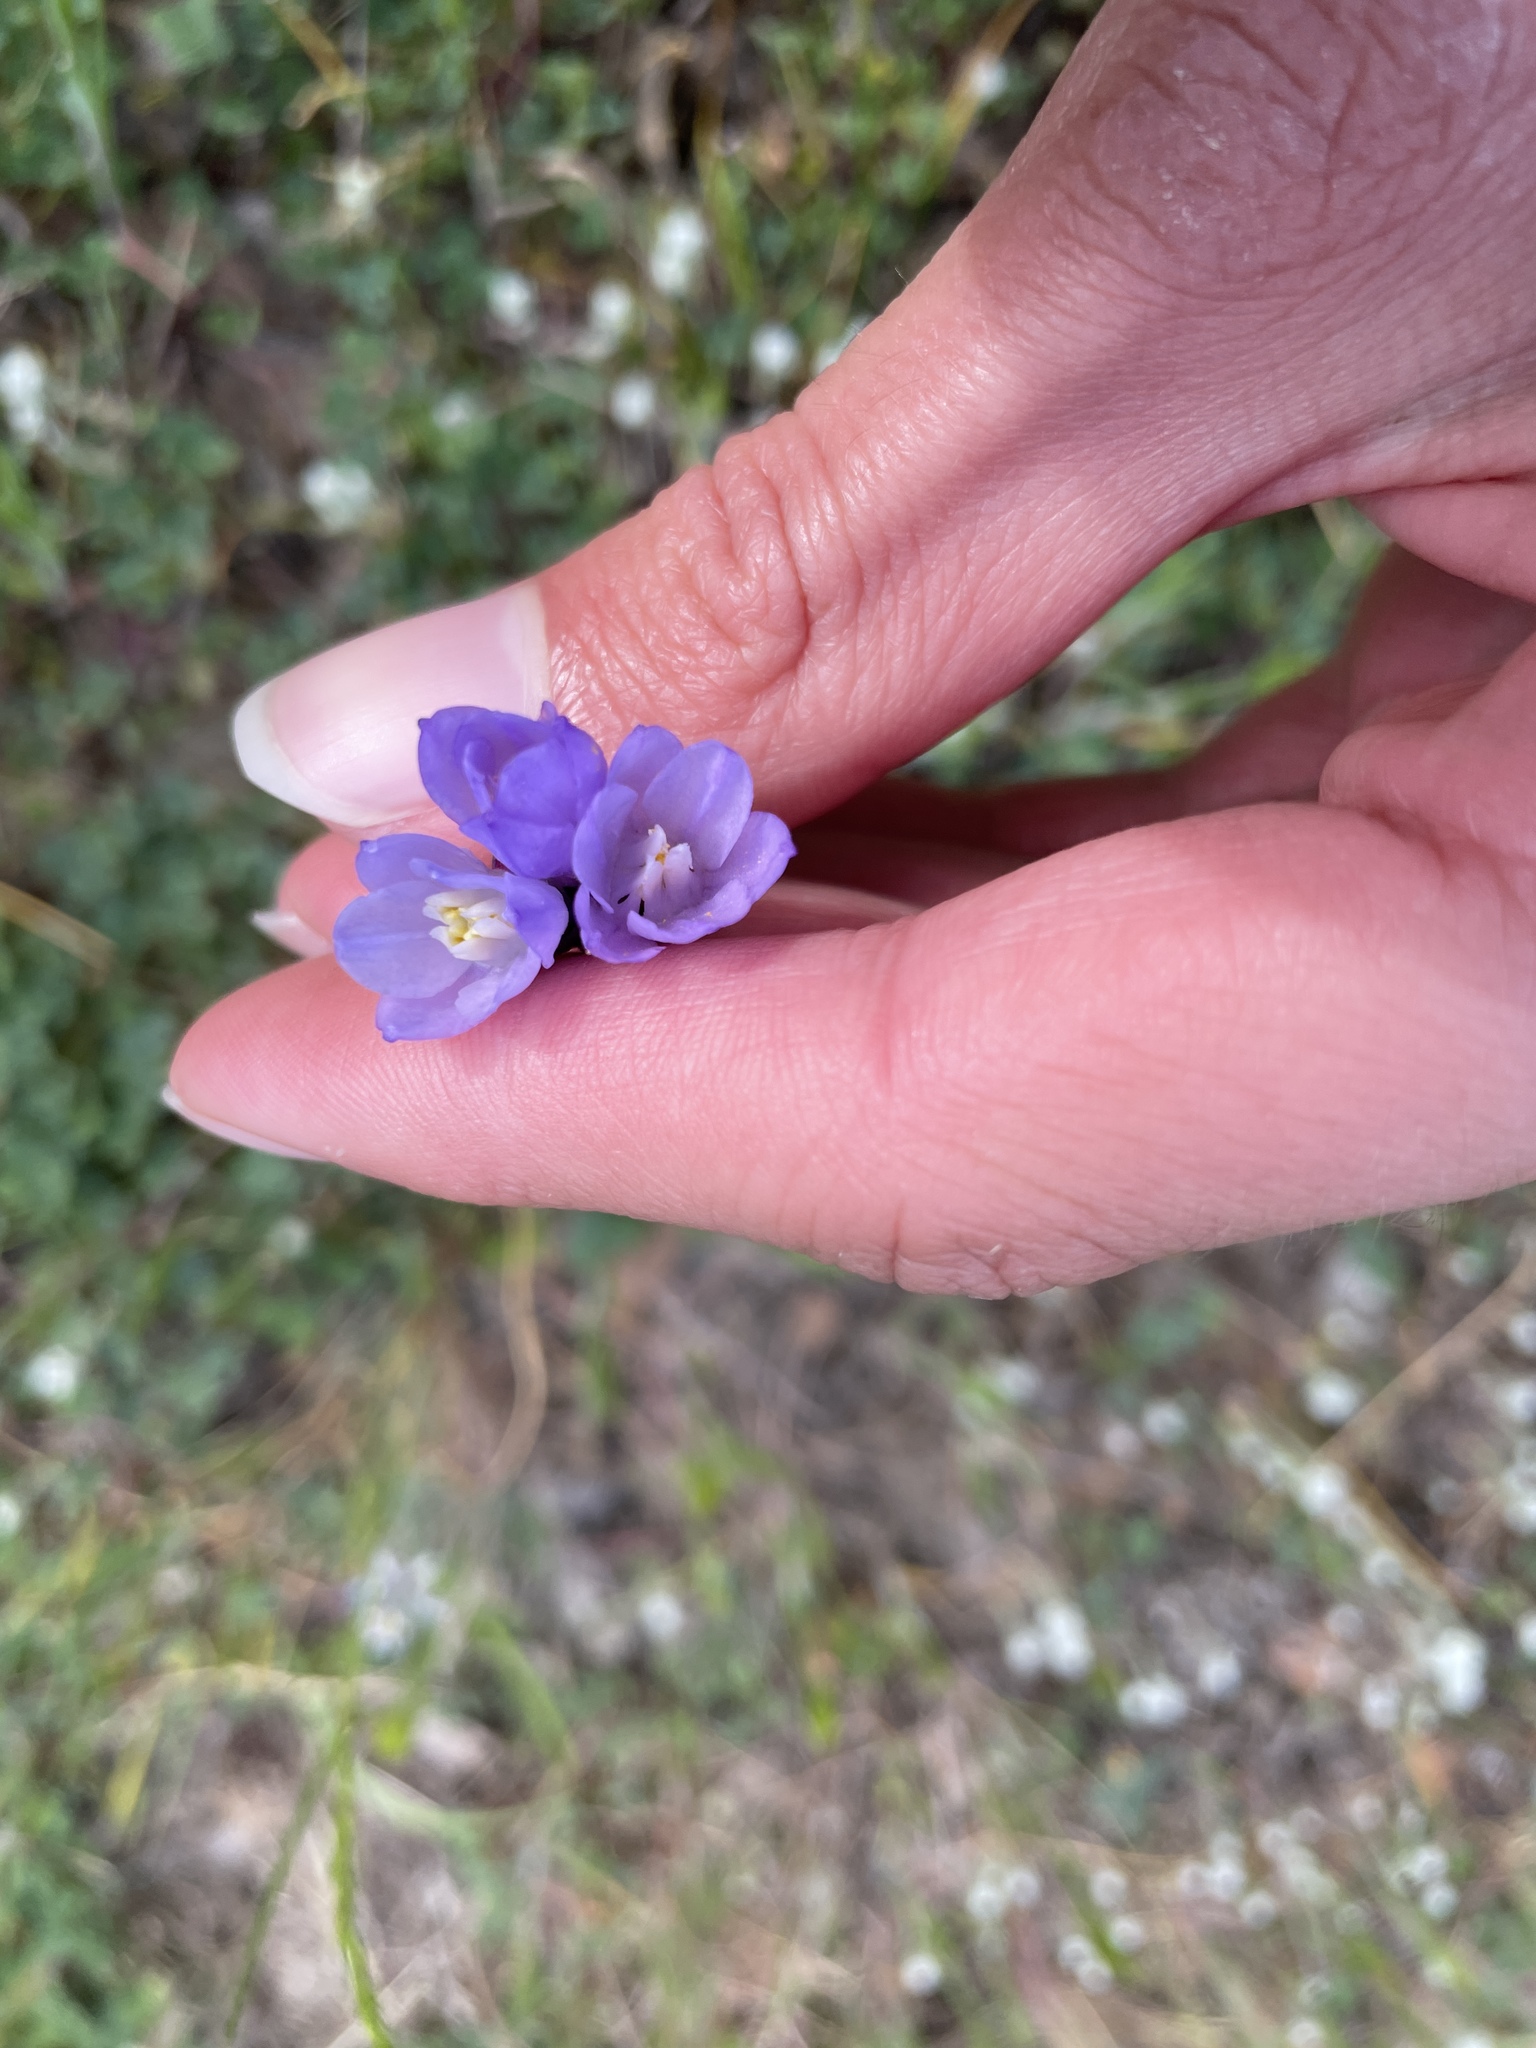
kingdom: Plantae
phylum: Tracheophyta
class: Liliopsida
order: Asparagales
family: Asparagaceae
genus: Dipterostemon
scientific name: Dipterostemon capitatus
